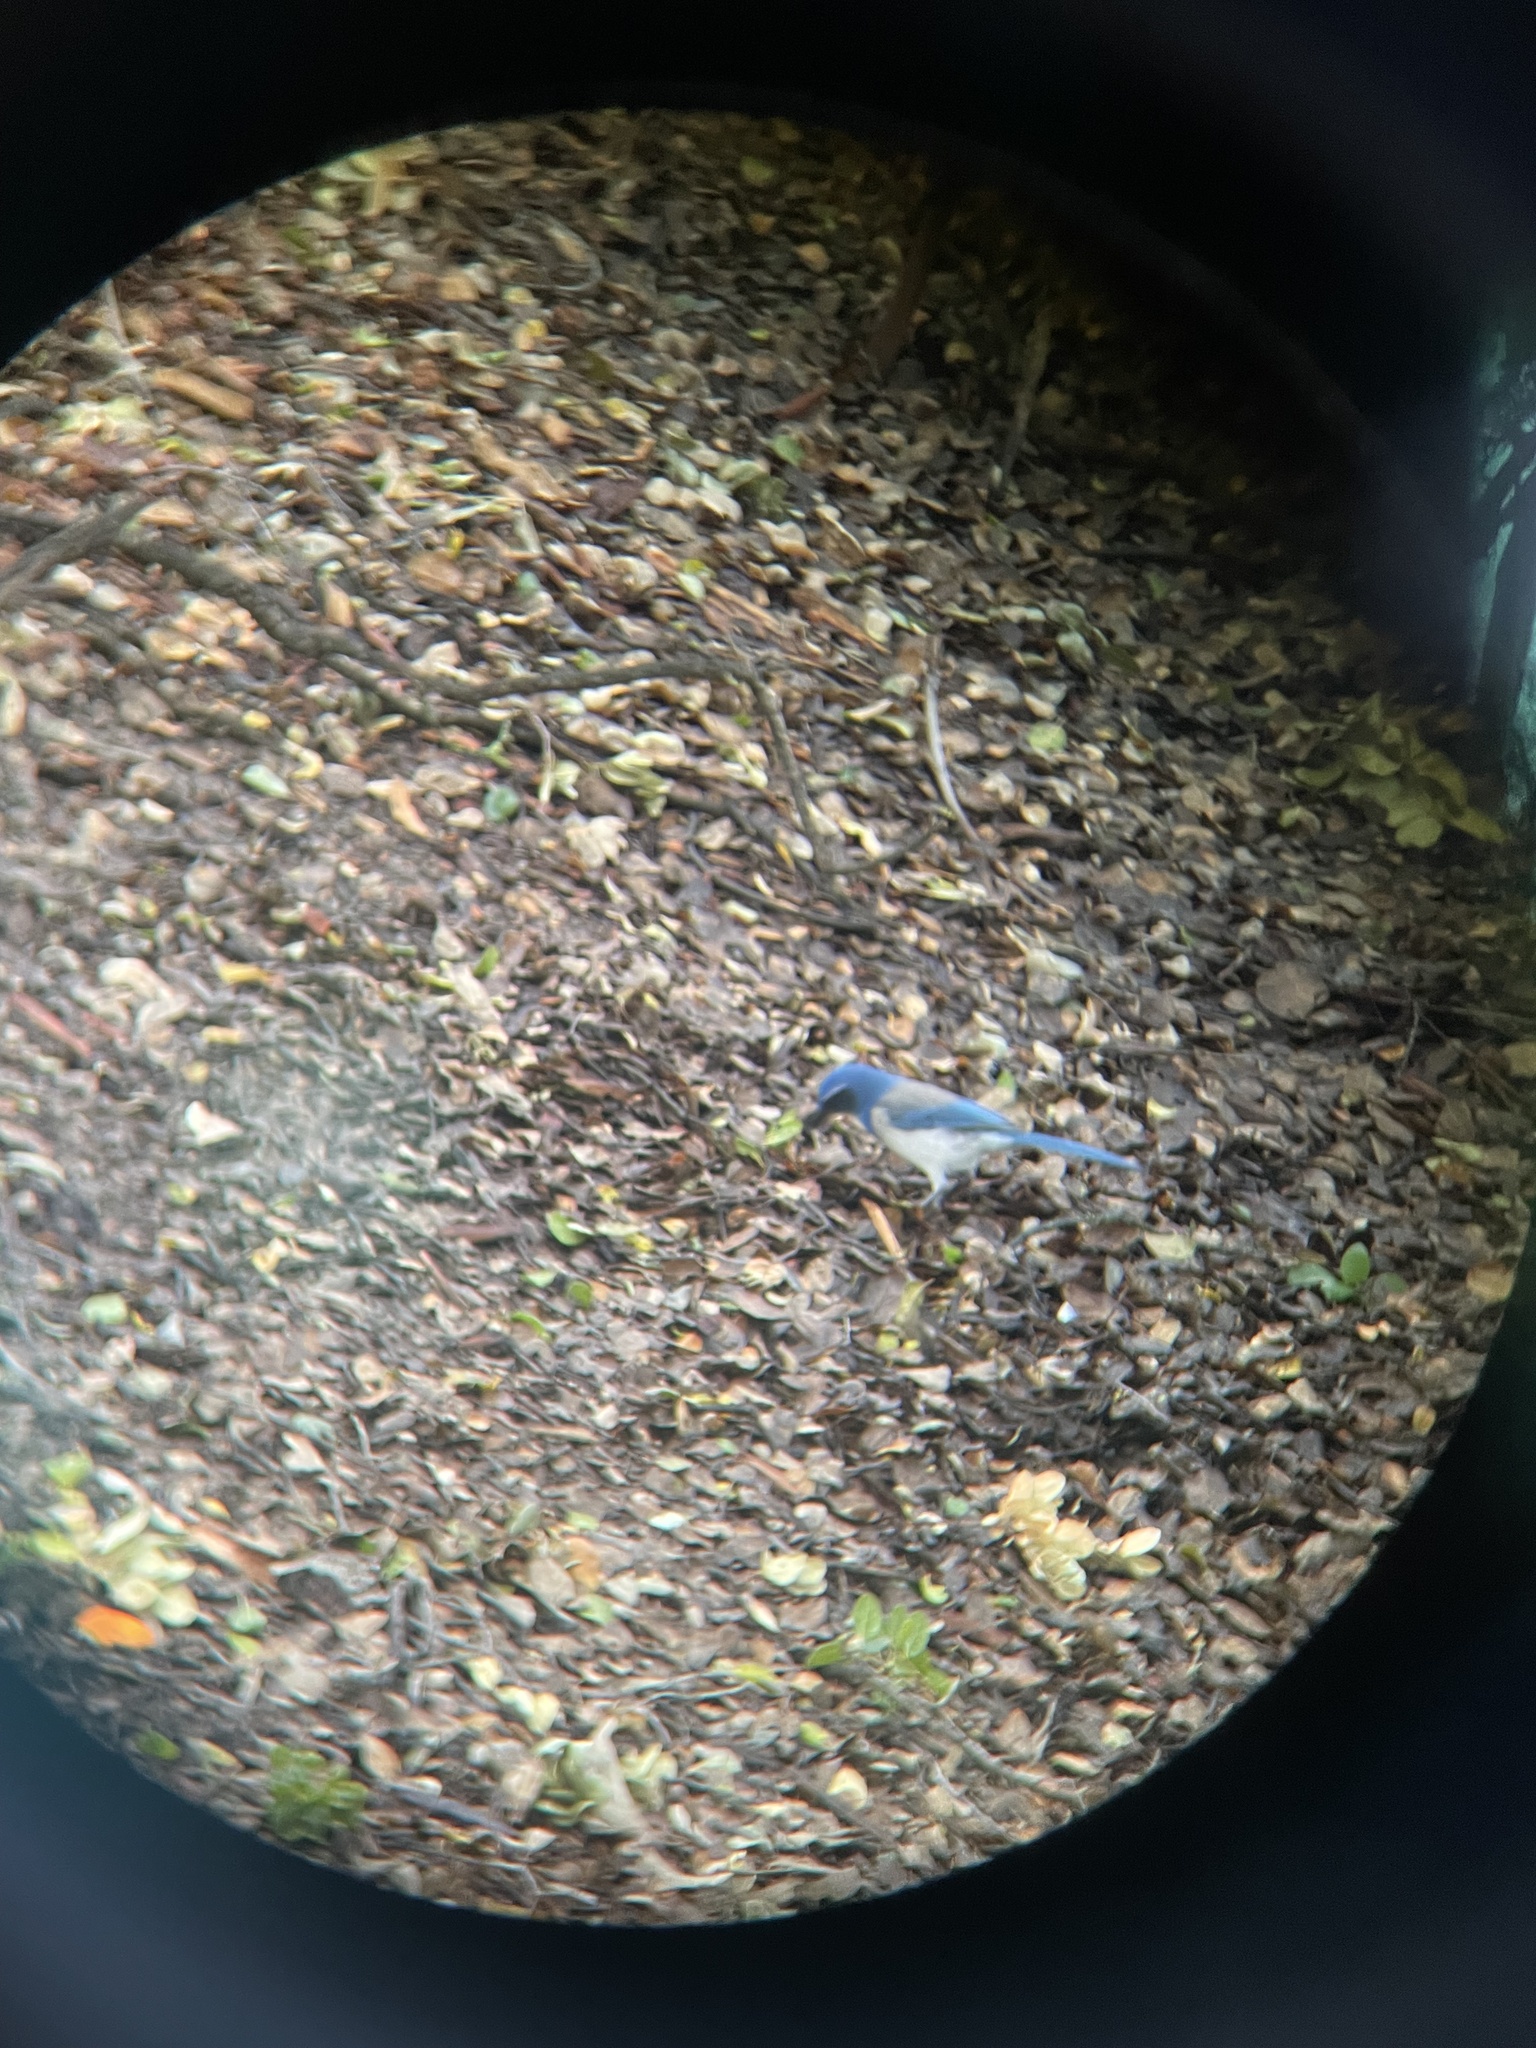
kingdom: Animalia
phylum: Chordata
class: Aves
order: Passeriformes
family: Corvidae
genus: Aphelocoma
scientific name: Aphelocoma californica
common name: California scrub-jay
